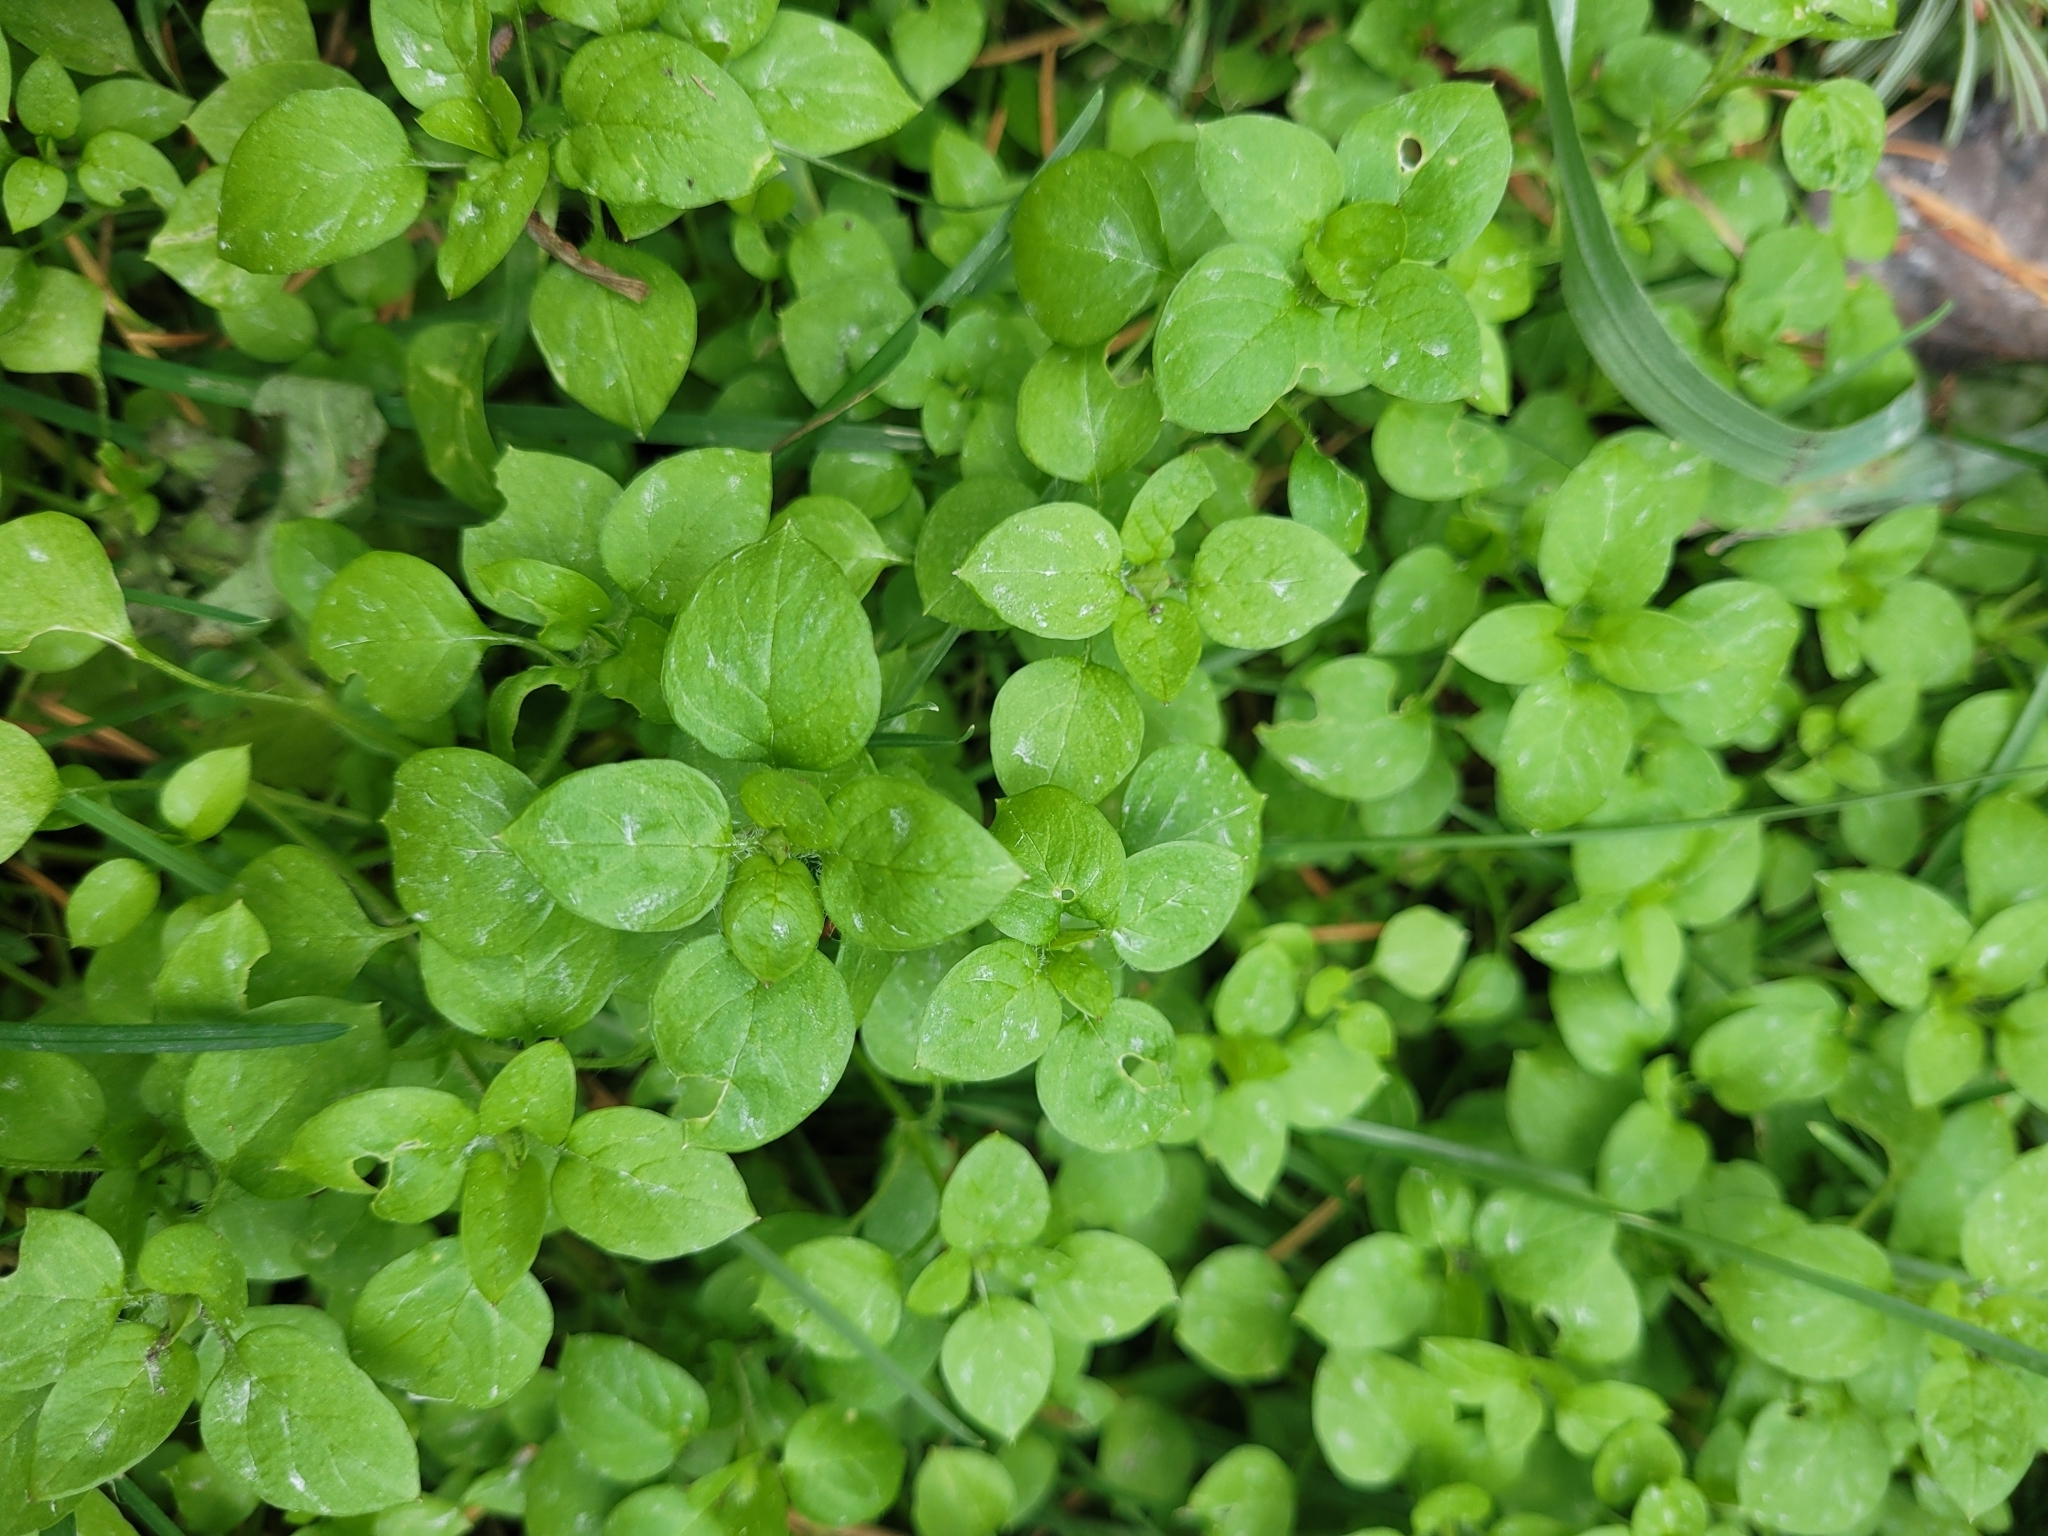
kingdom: Plantae
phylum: Tracheophyta
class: Magnoliopsida
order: Caryophyllales
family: Caryophyllaceae
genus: Stellaria
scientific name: Stellaria media
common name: Common chickweed
